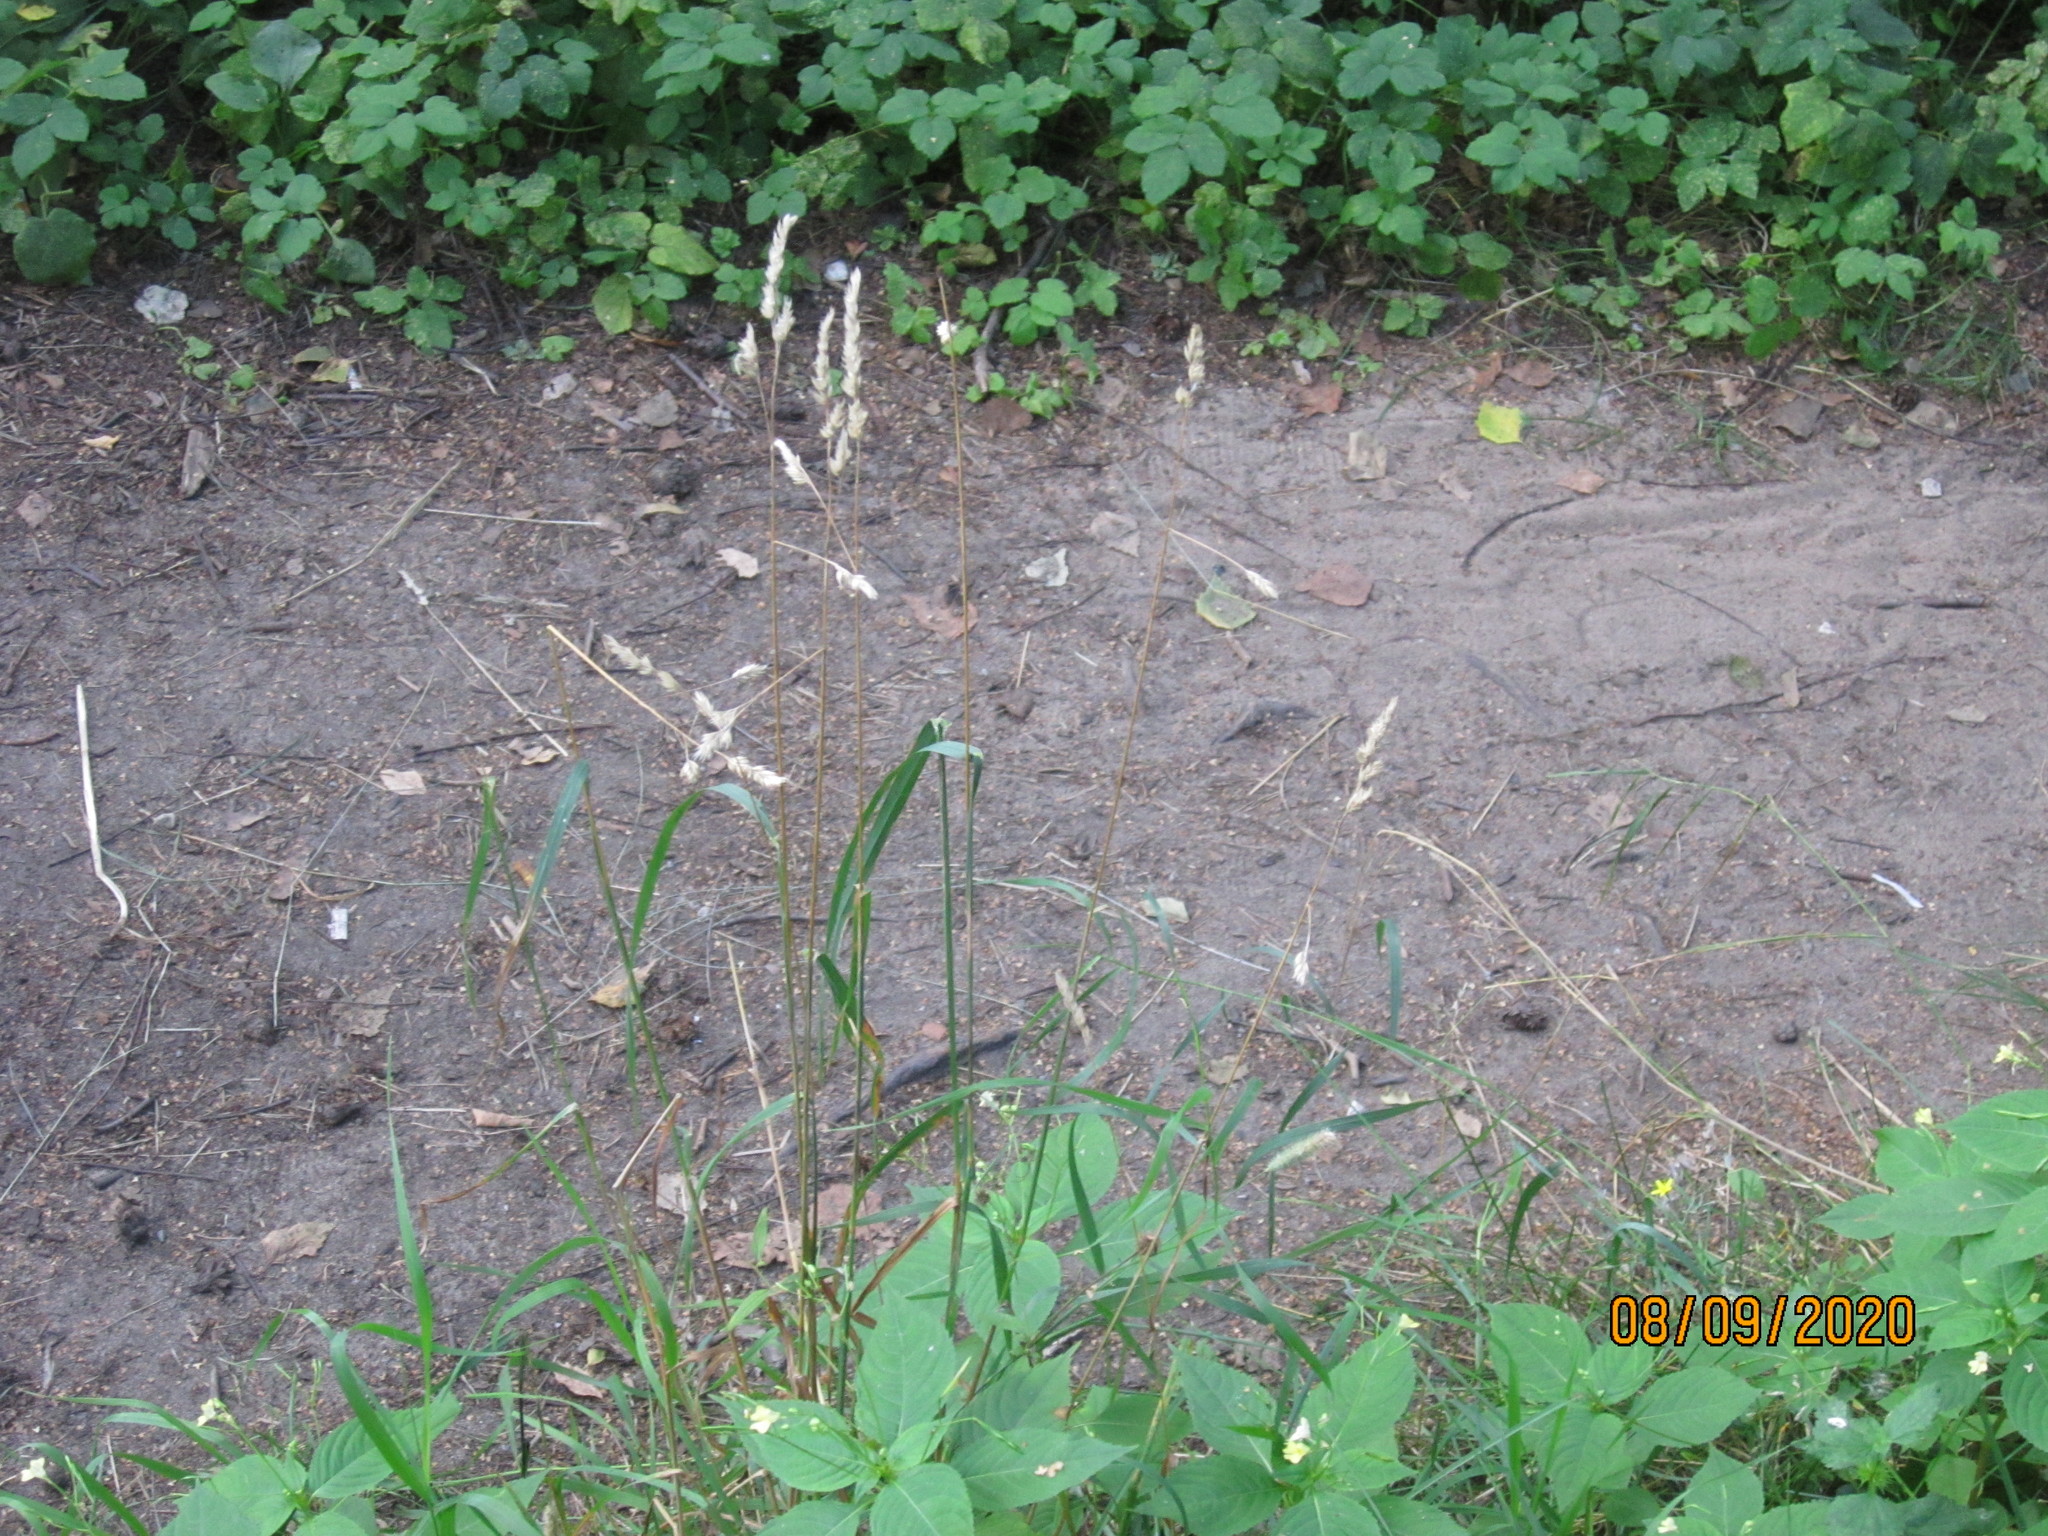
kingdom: Plantae
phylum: Tracheophyta
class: Liliopsida
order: Poales
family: Poaceae
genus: Dactylis
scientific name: Dactylis glomerata
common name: Orchardgrass
